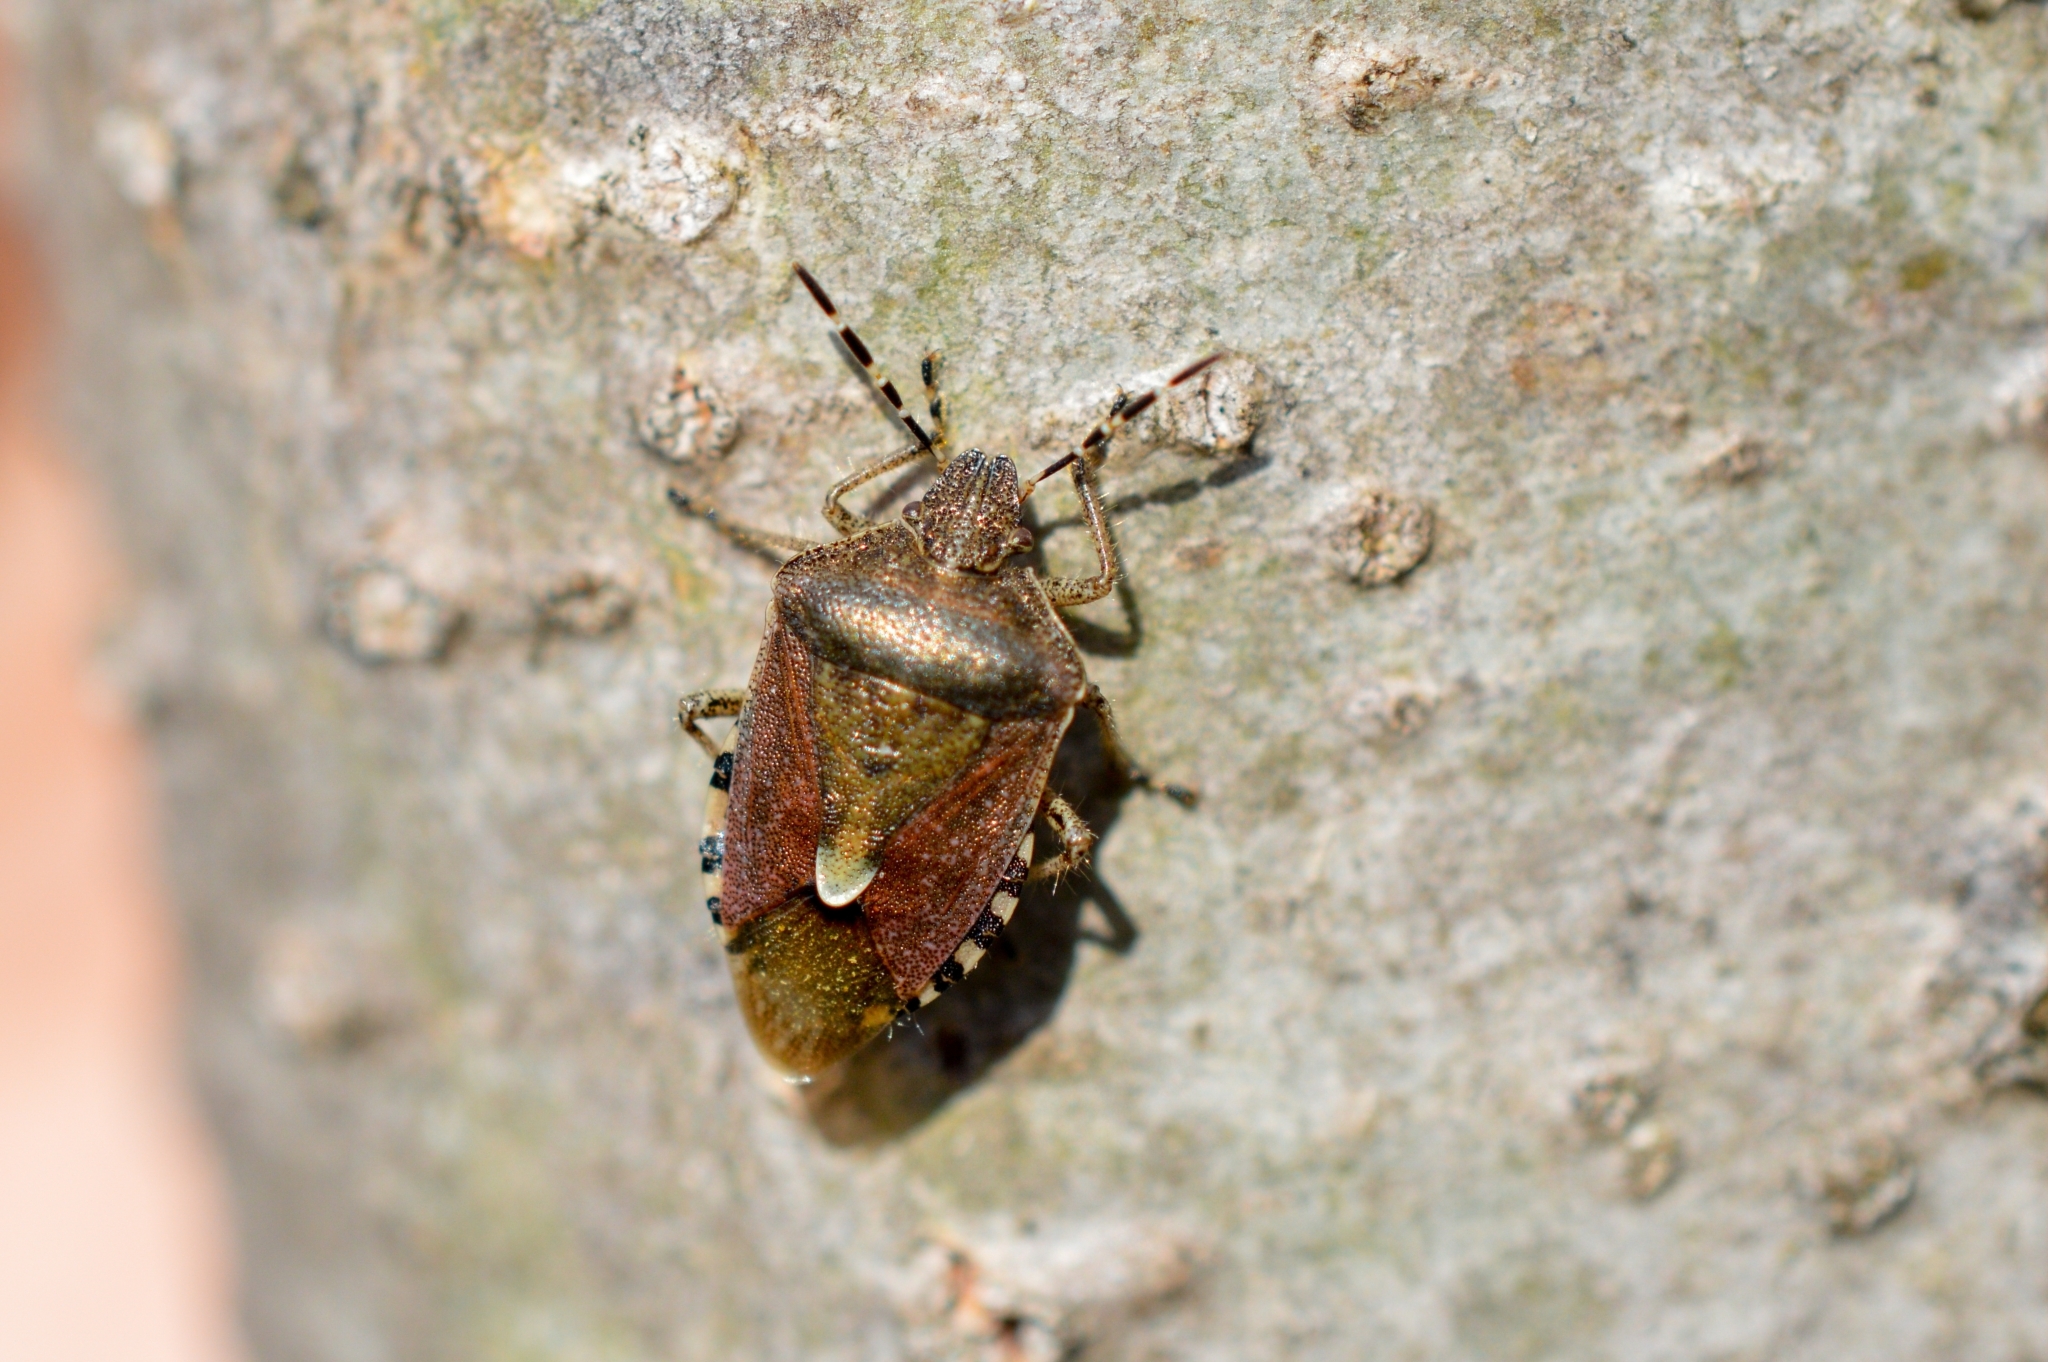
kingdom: Animalia
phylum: Arthropoda
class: Insecta
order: Hemiptera
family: Pentatomidae
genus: Dolycoris
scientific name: Dolycoris baccarum
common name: Sloe bug
